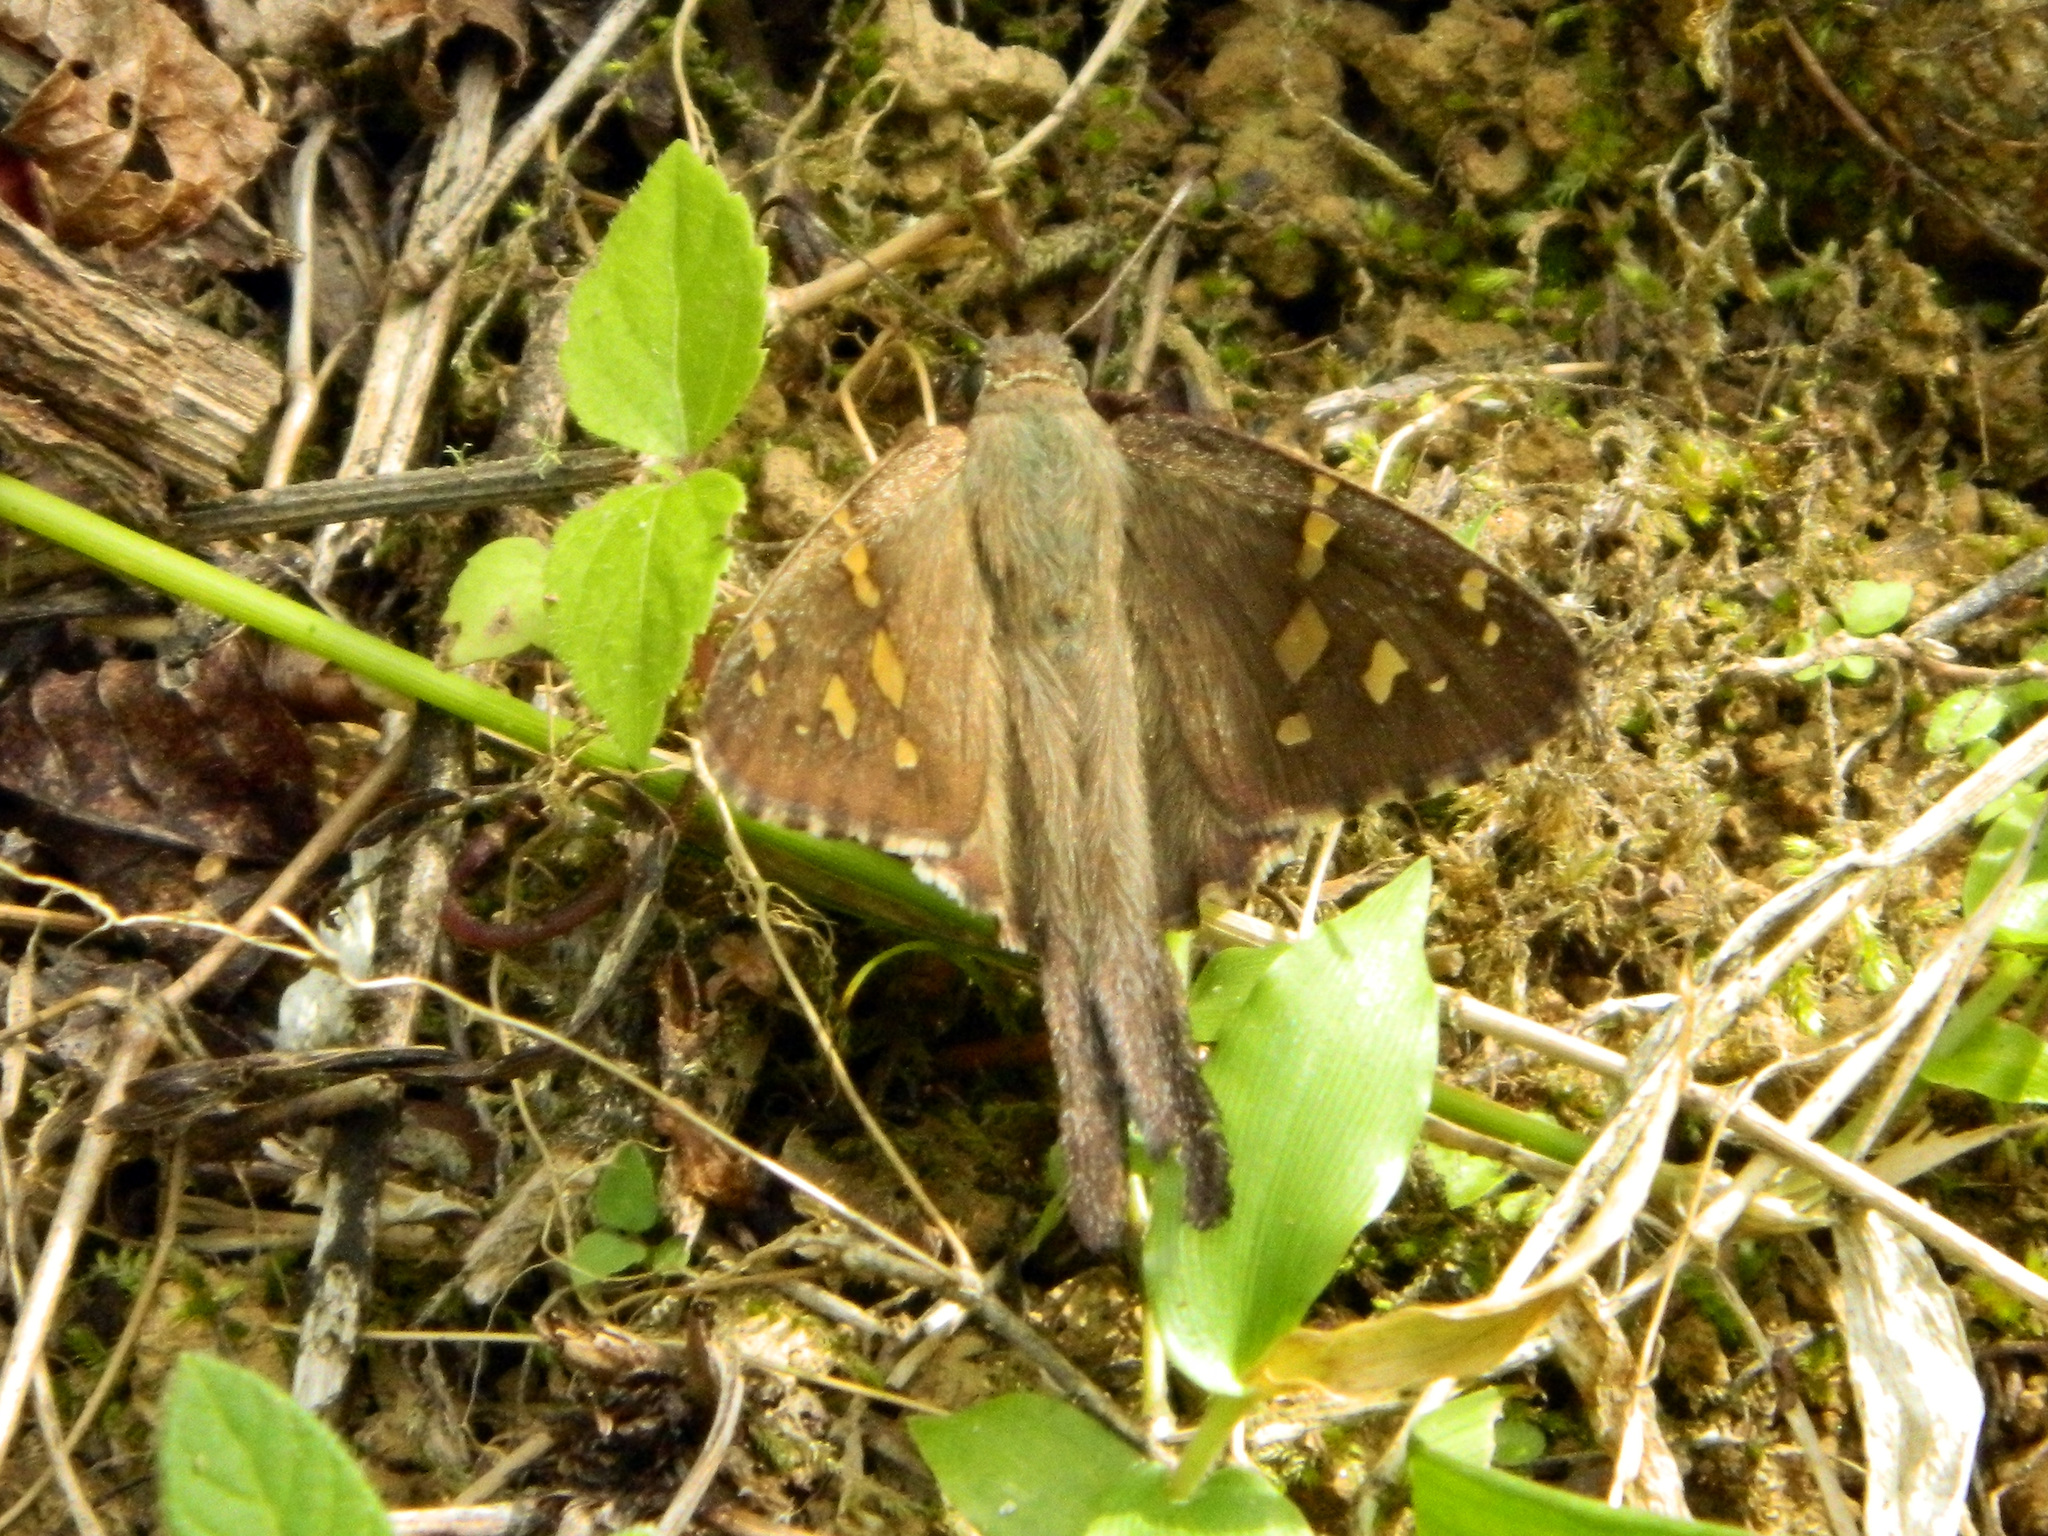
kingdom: Animalia
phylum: Arthropoda
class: Insecta
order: Lepidoptera
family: Hesperiidae
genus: Thorybes
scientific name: Thorybes
